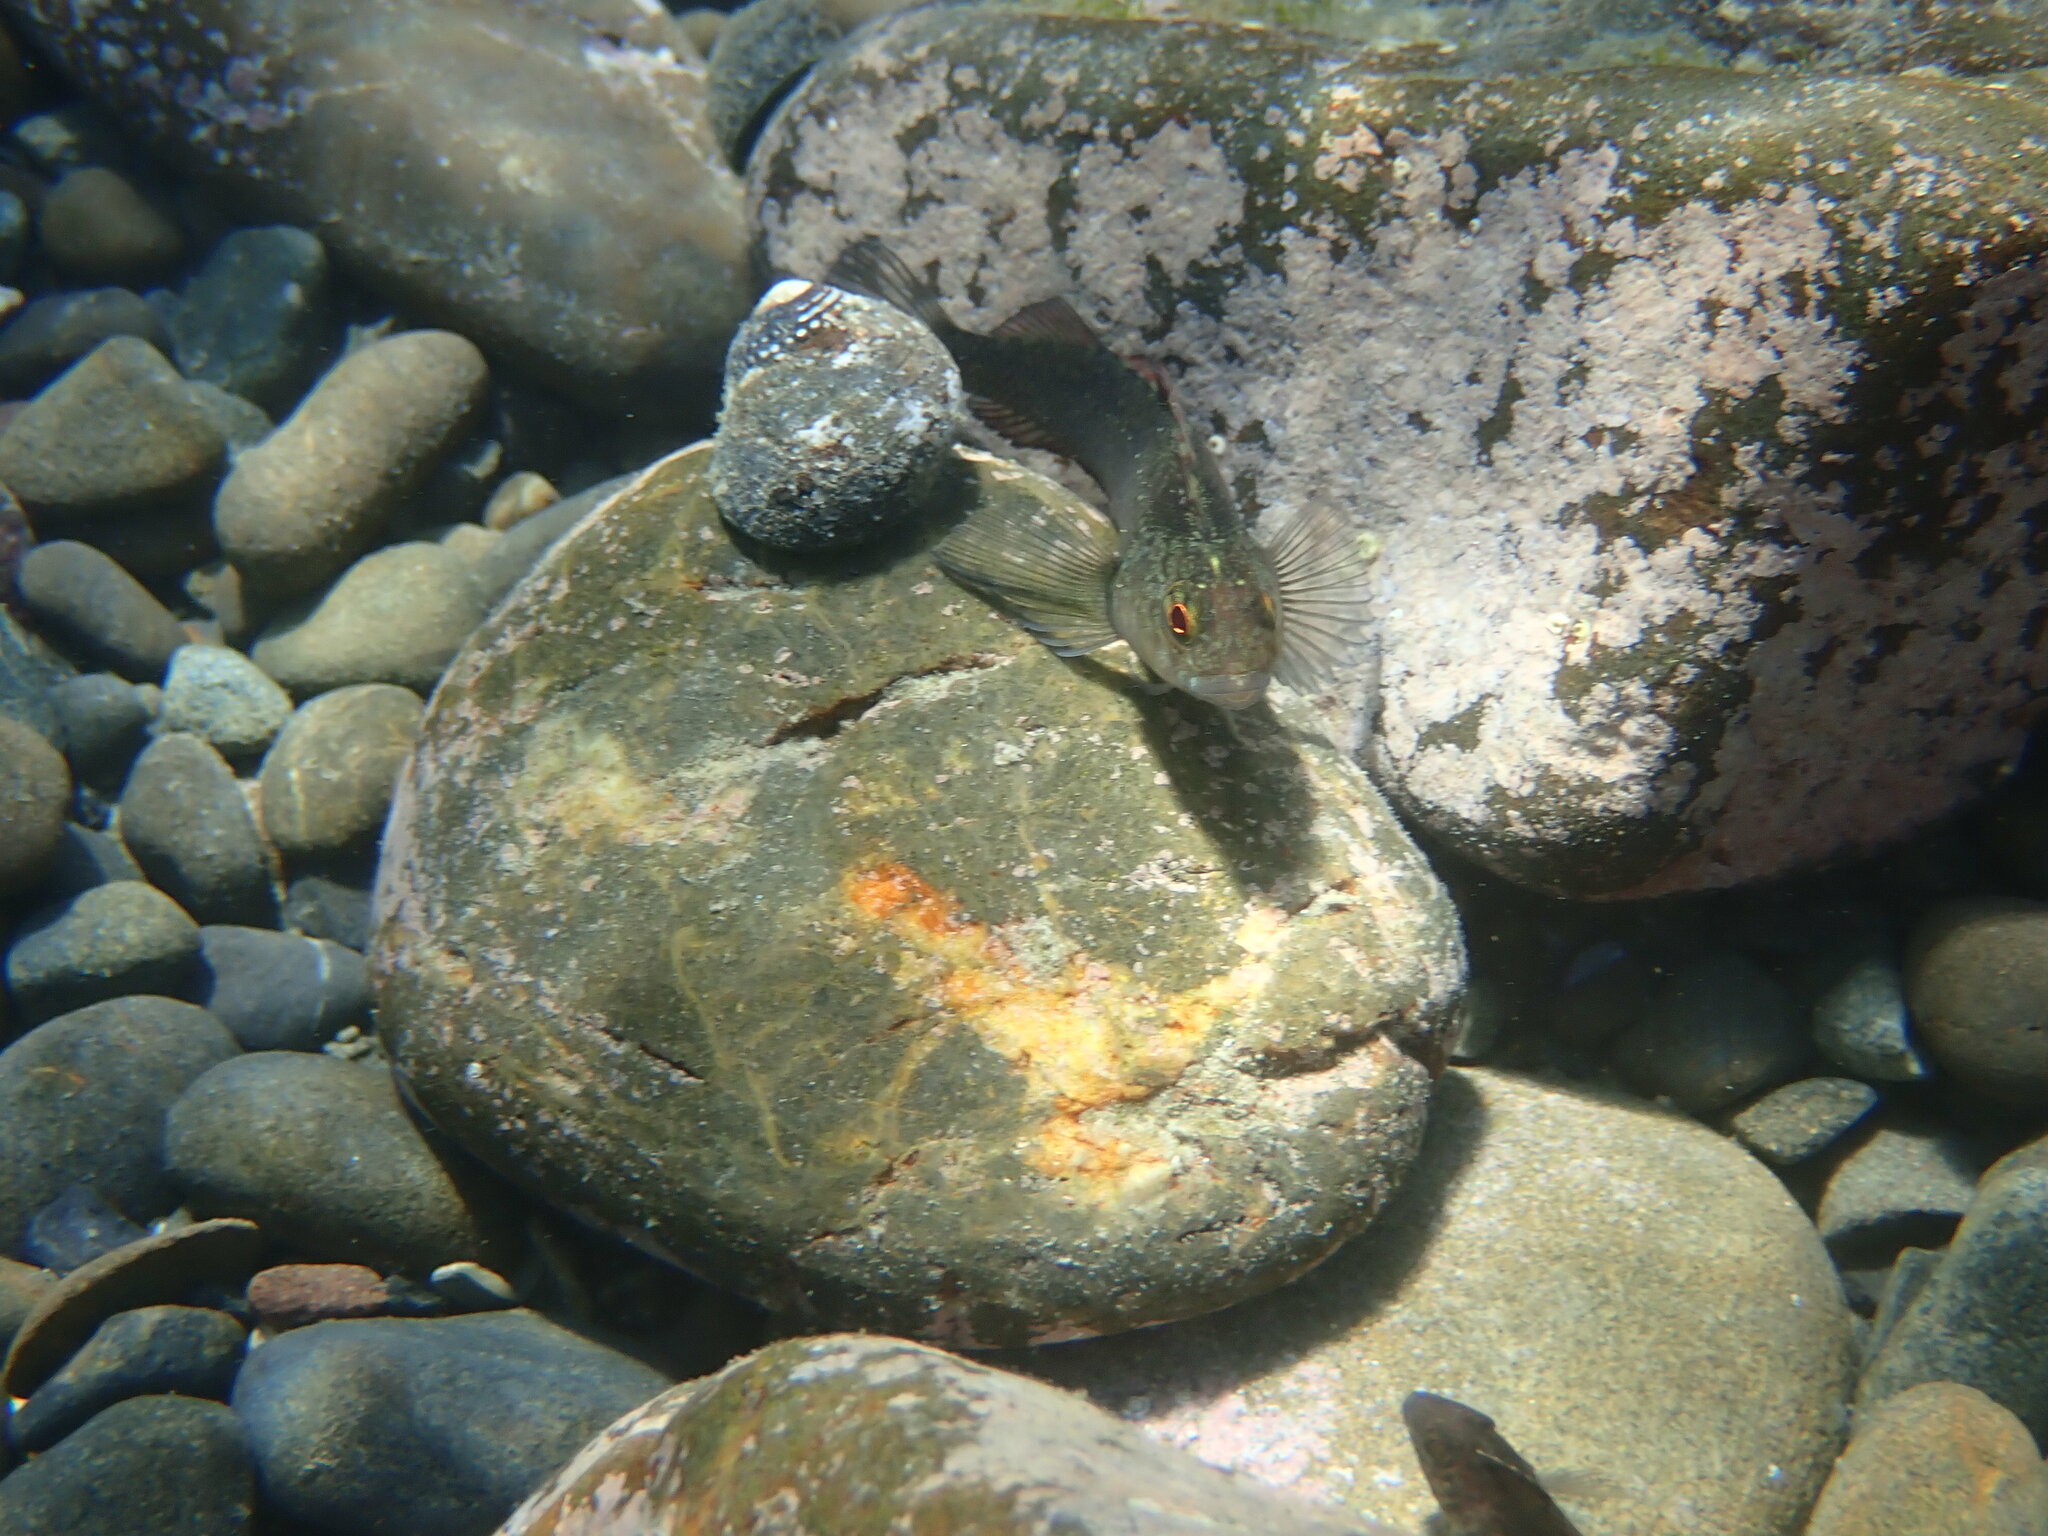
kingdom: Animalia
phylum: Chordata
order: Perciformes
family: Tripterygiidae
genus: Forsterygion
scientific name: Forsterygion lapillum
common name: Common triplefin
